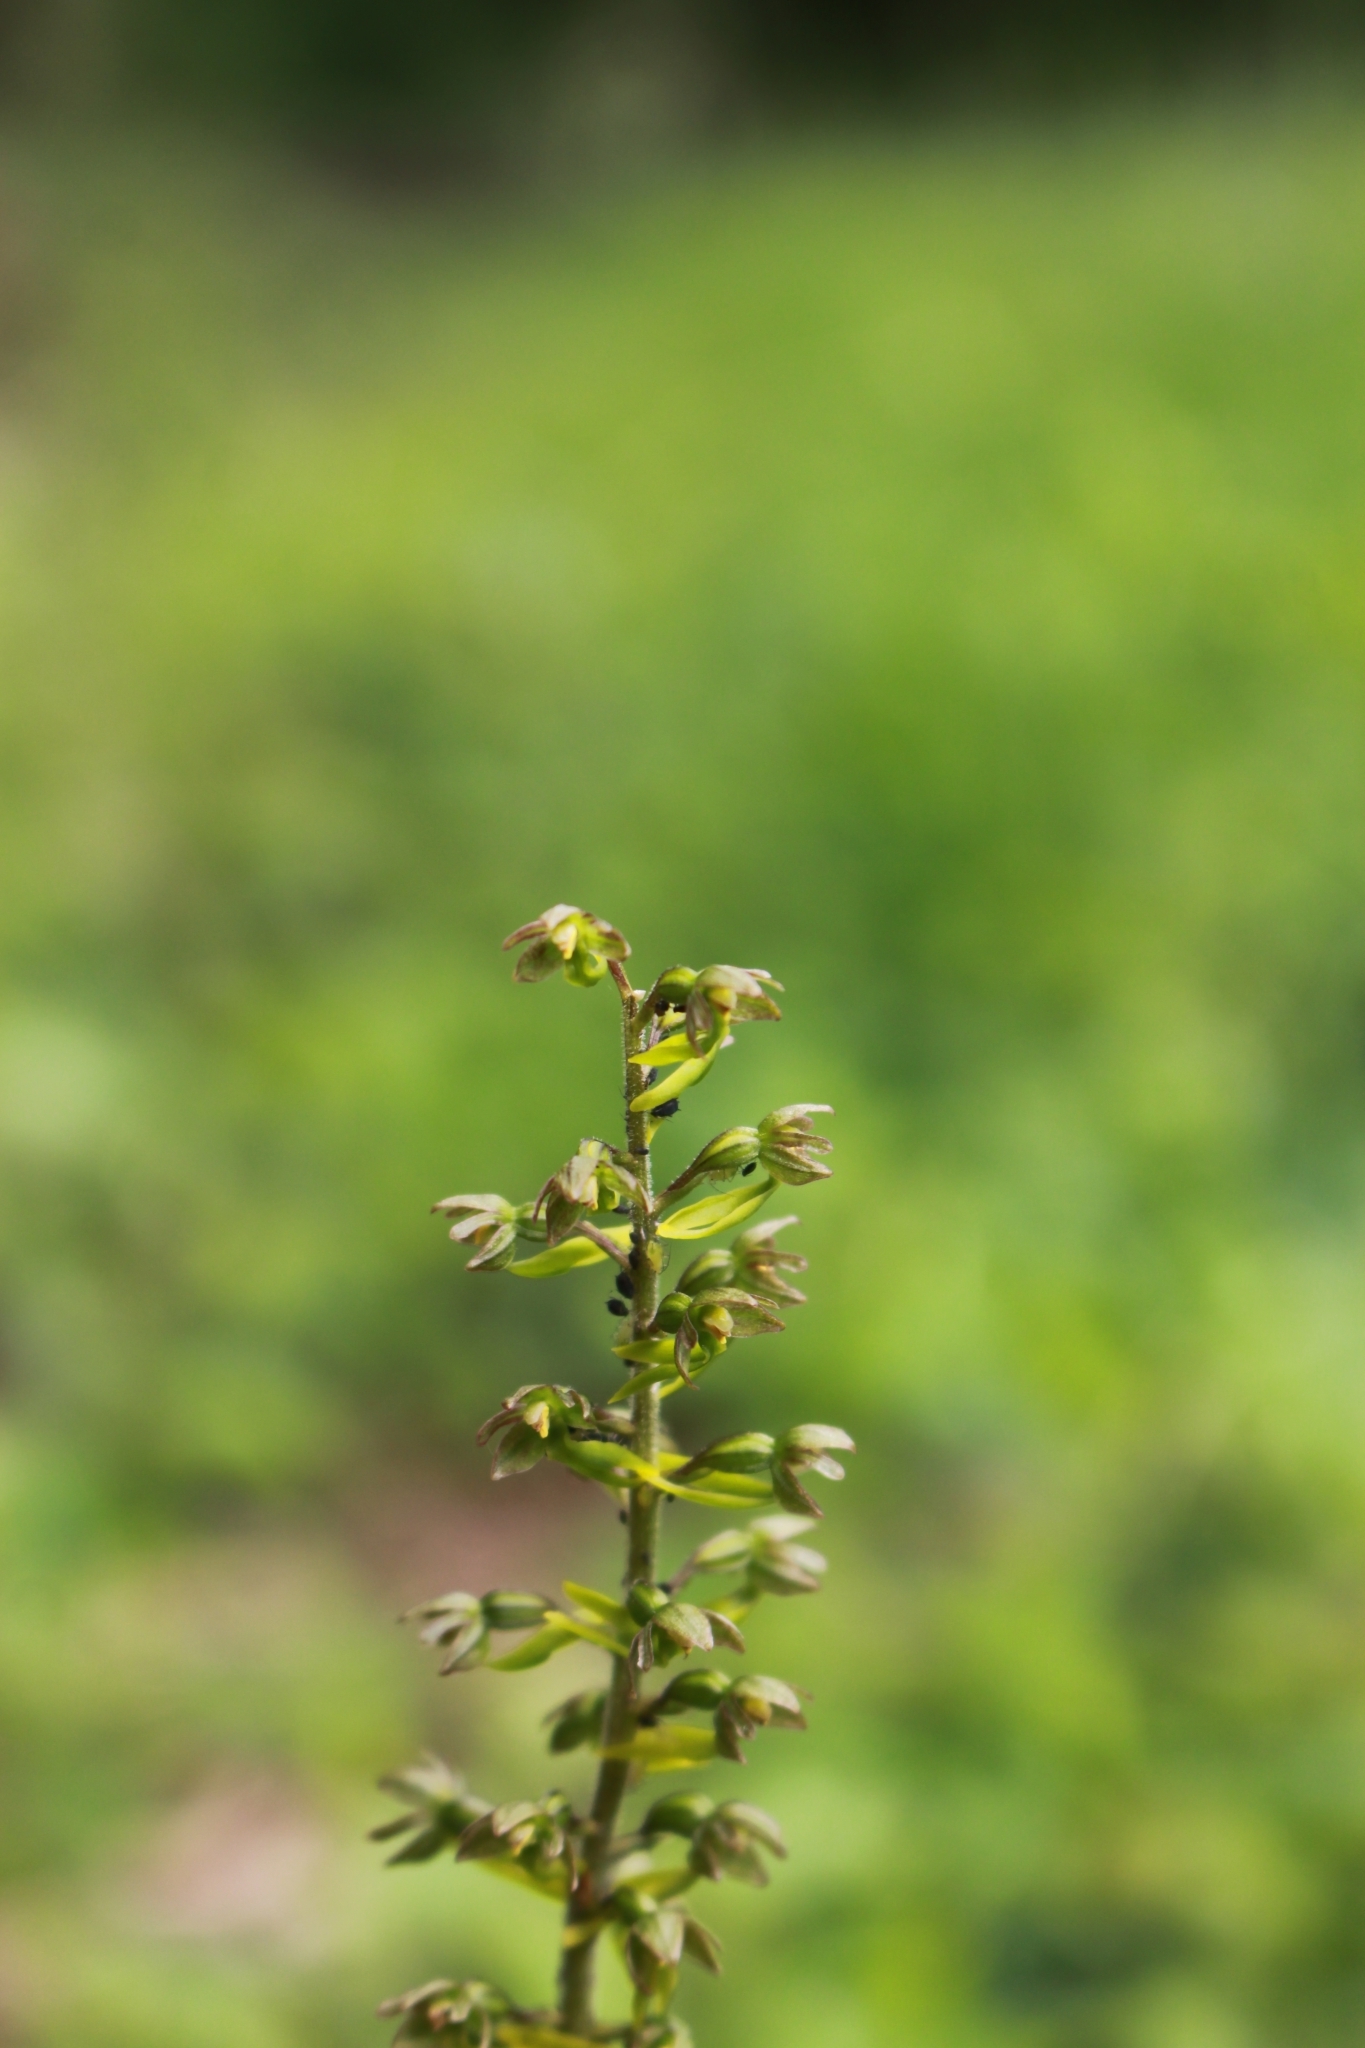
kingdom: Plantae
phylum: Tracheophyta
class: Liliopsida
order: Asparagales
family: Orchidaceae
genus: Neottia
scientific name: Neottia ovata
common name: Common twayblade
